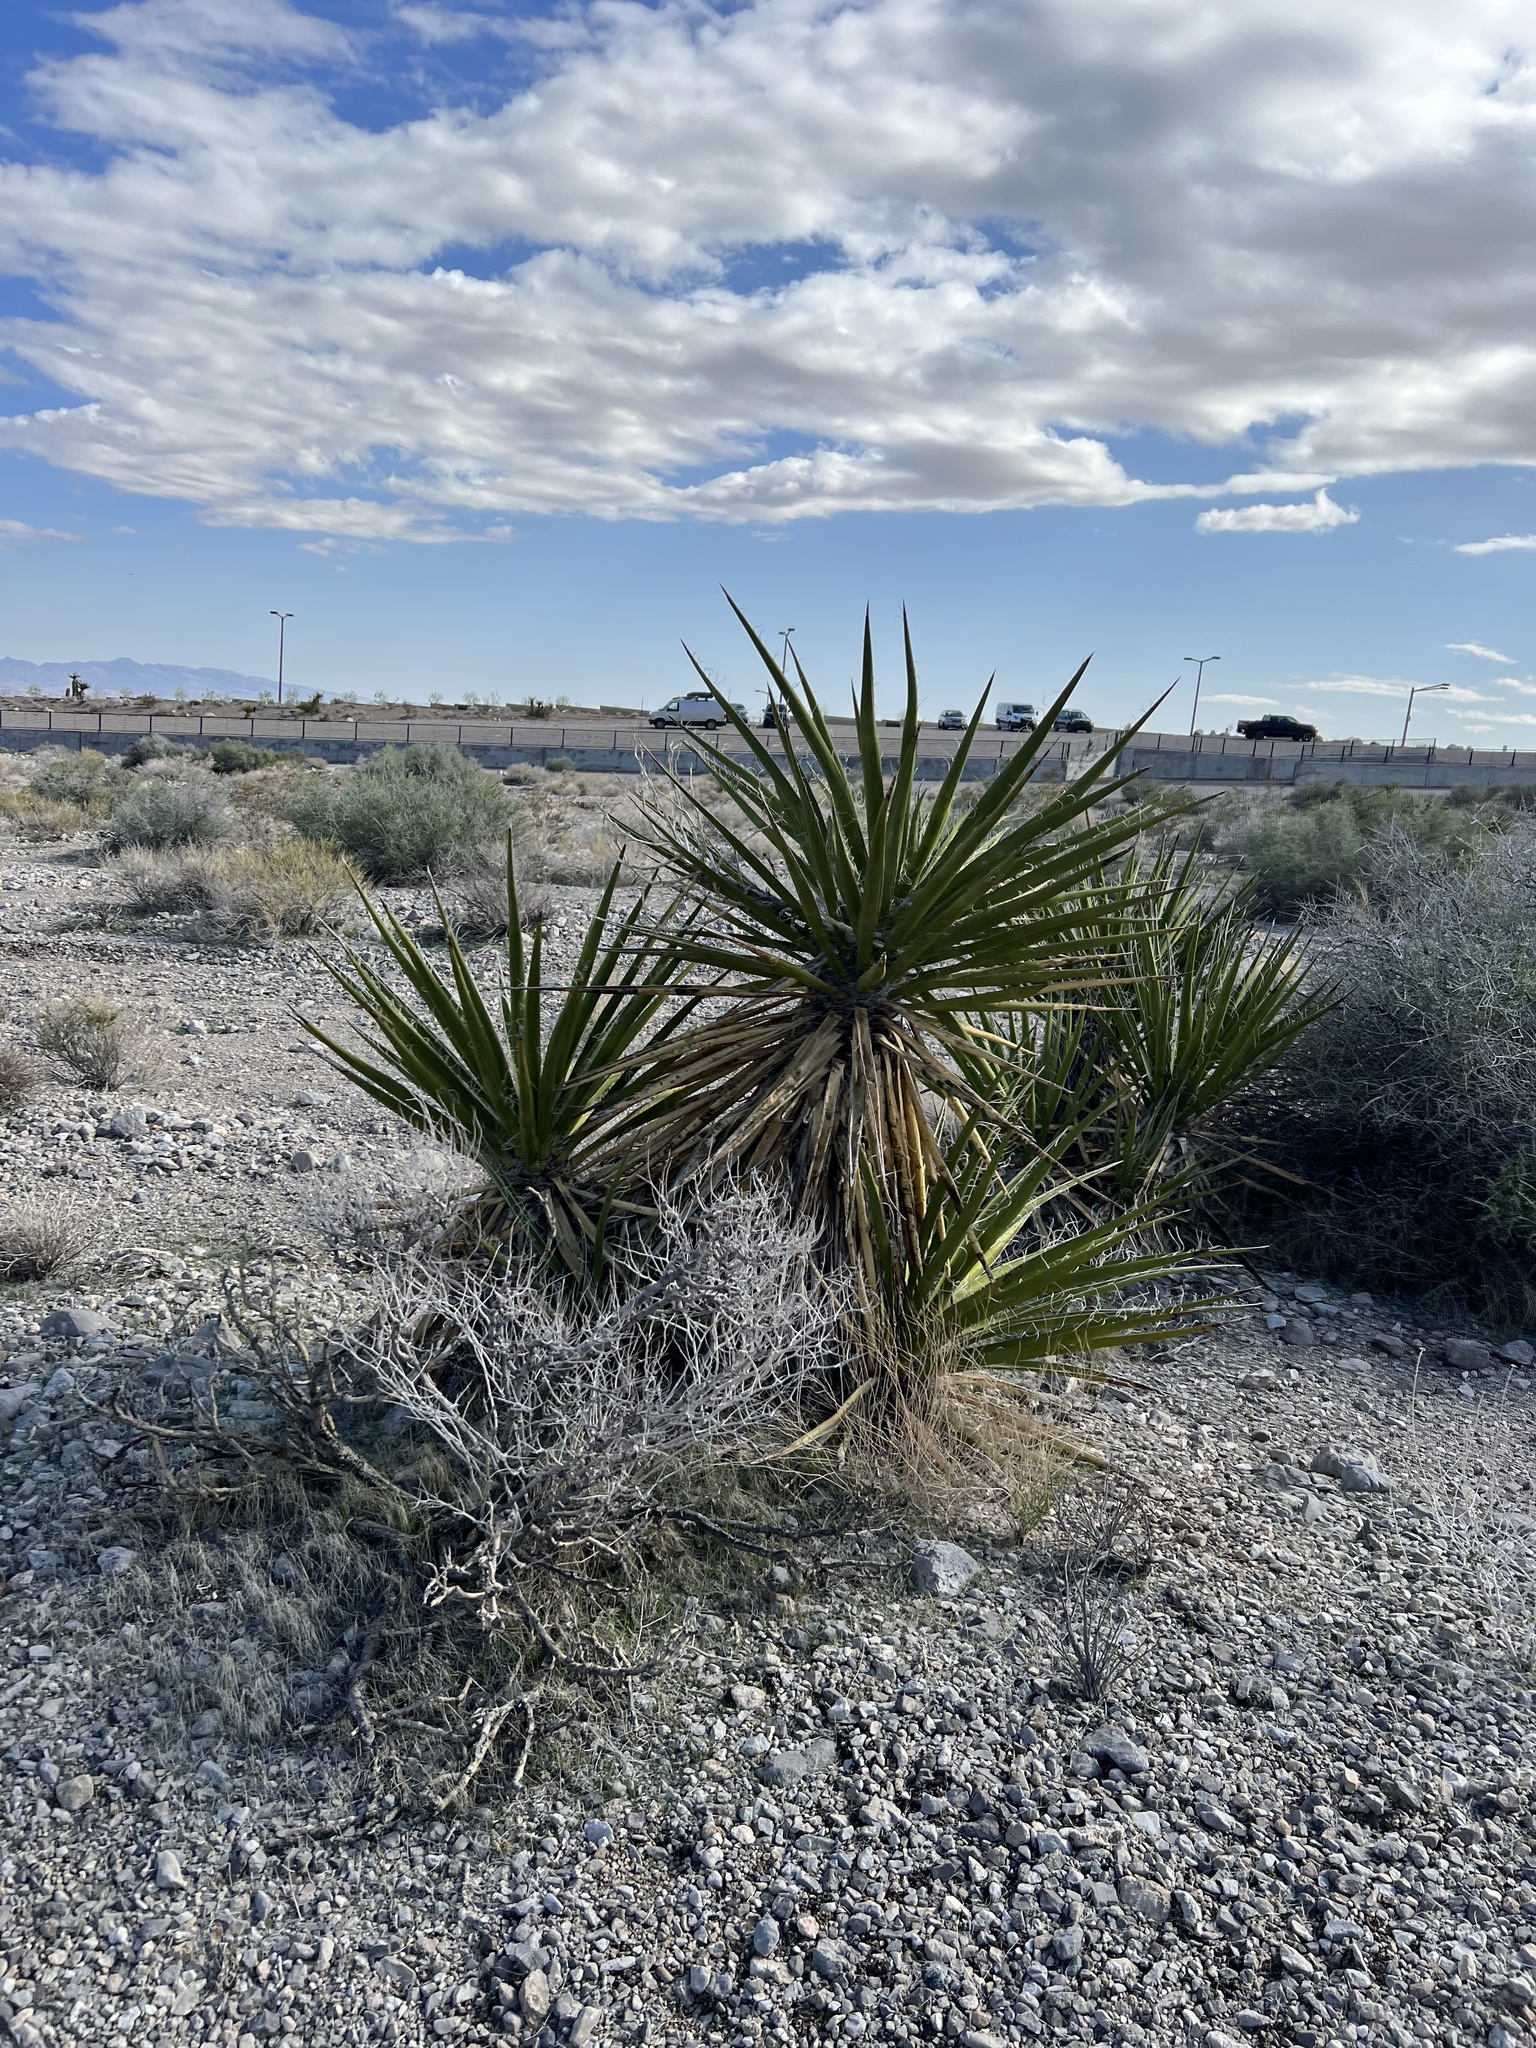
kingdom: Plantae
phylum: Tracheophyta
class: Liliopsida
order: Asparagales
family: Asparagaceae
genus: Yucca
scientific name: Yucca schidigera
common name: Mojave yucca
